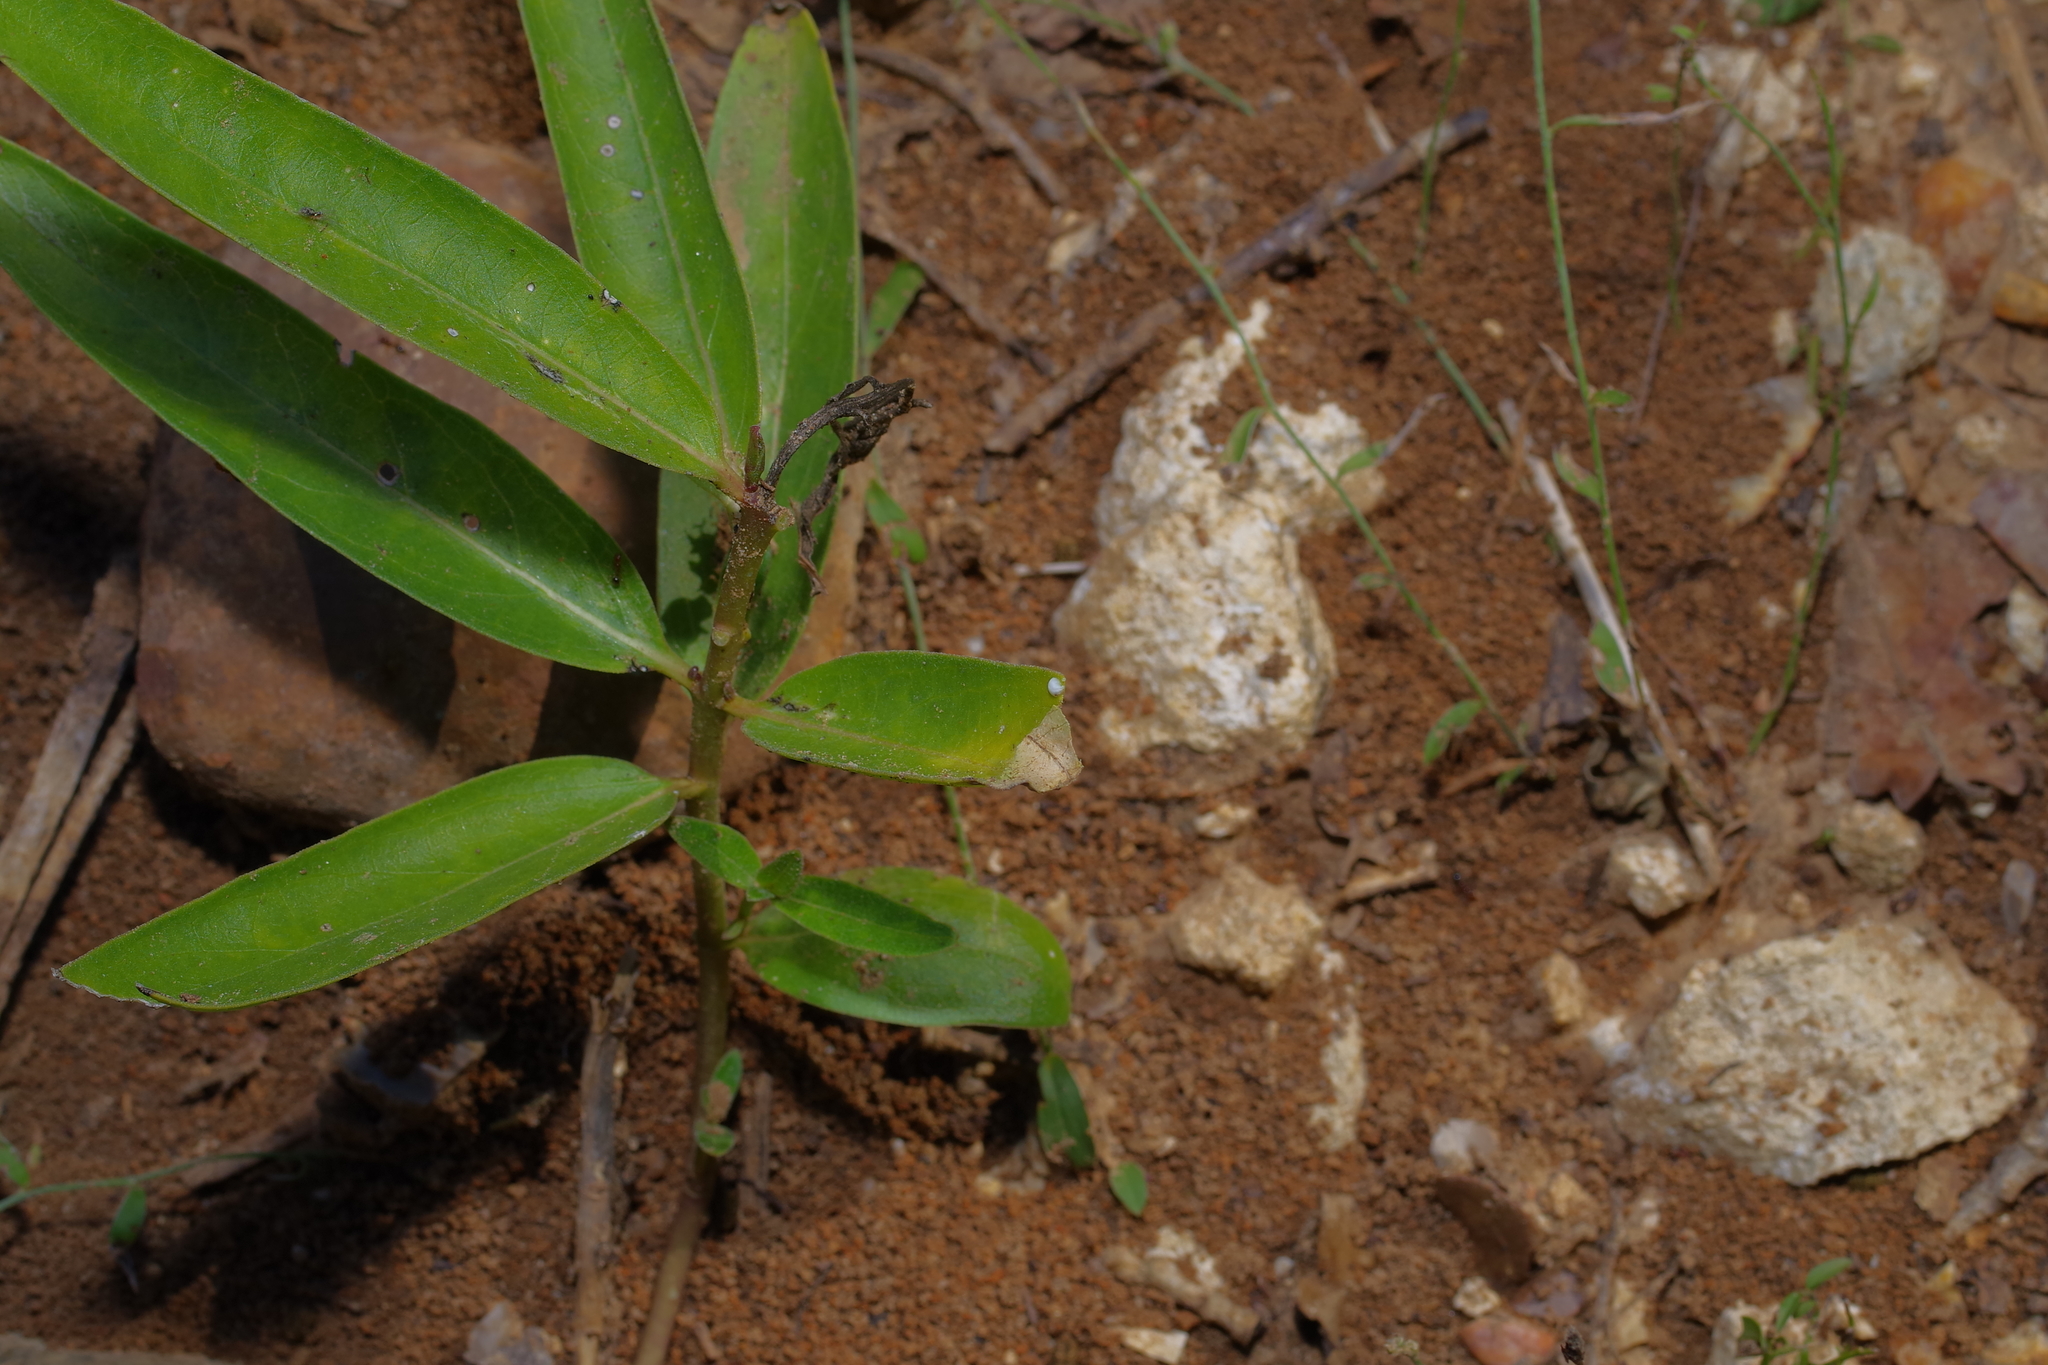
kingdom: Plantae
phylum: Tracheophyta
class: Magnoliopsida
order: Gentianales
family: Apocynaceae
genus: Asclepias
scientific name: Asclepias viridis
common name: Antelope-horns
